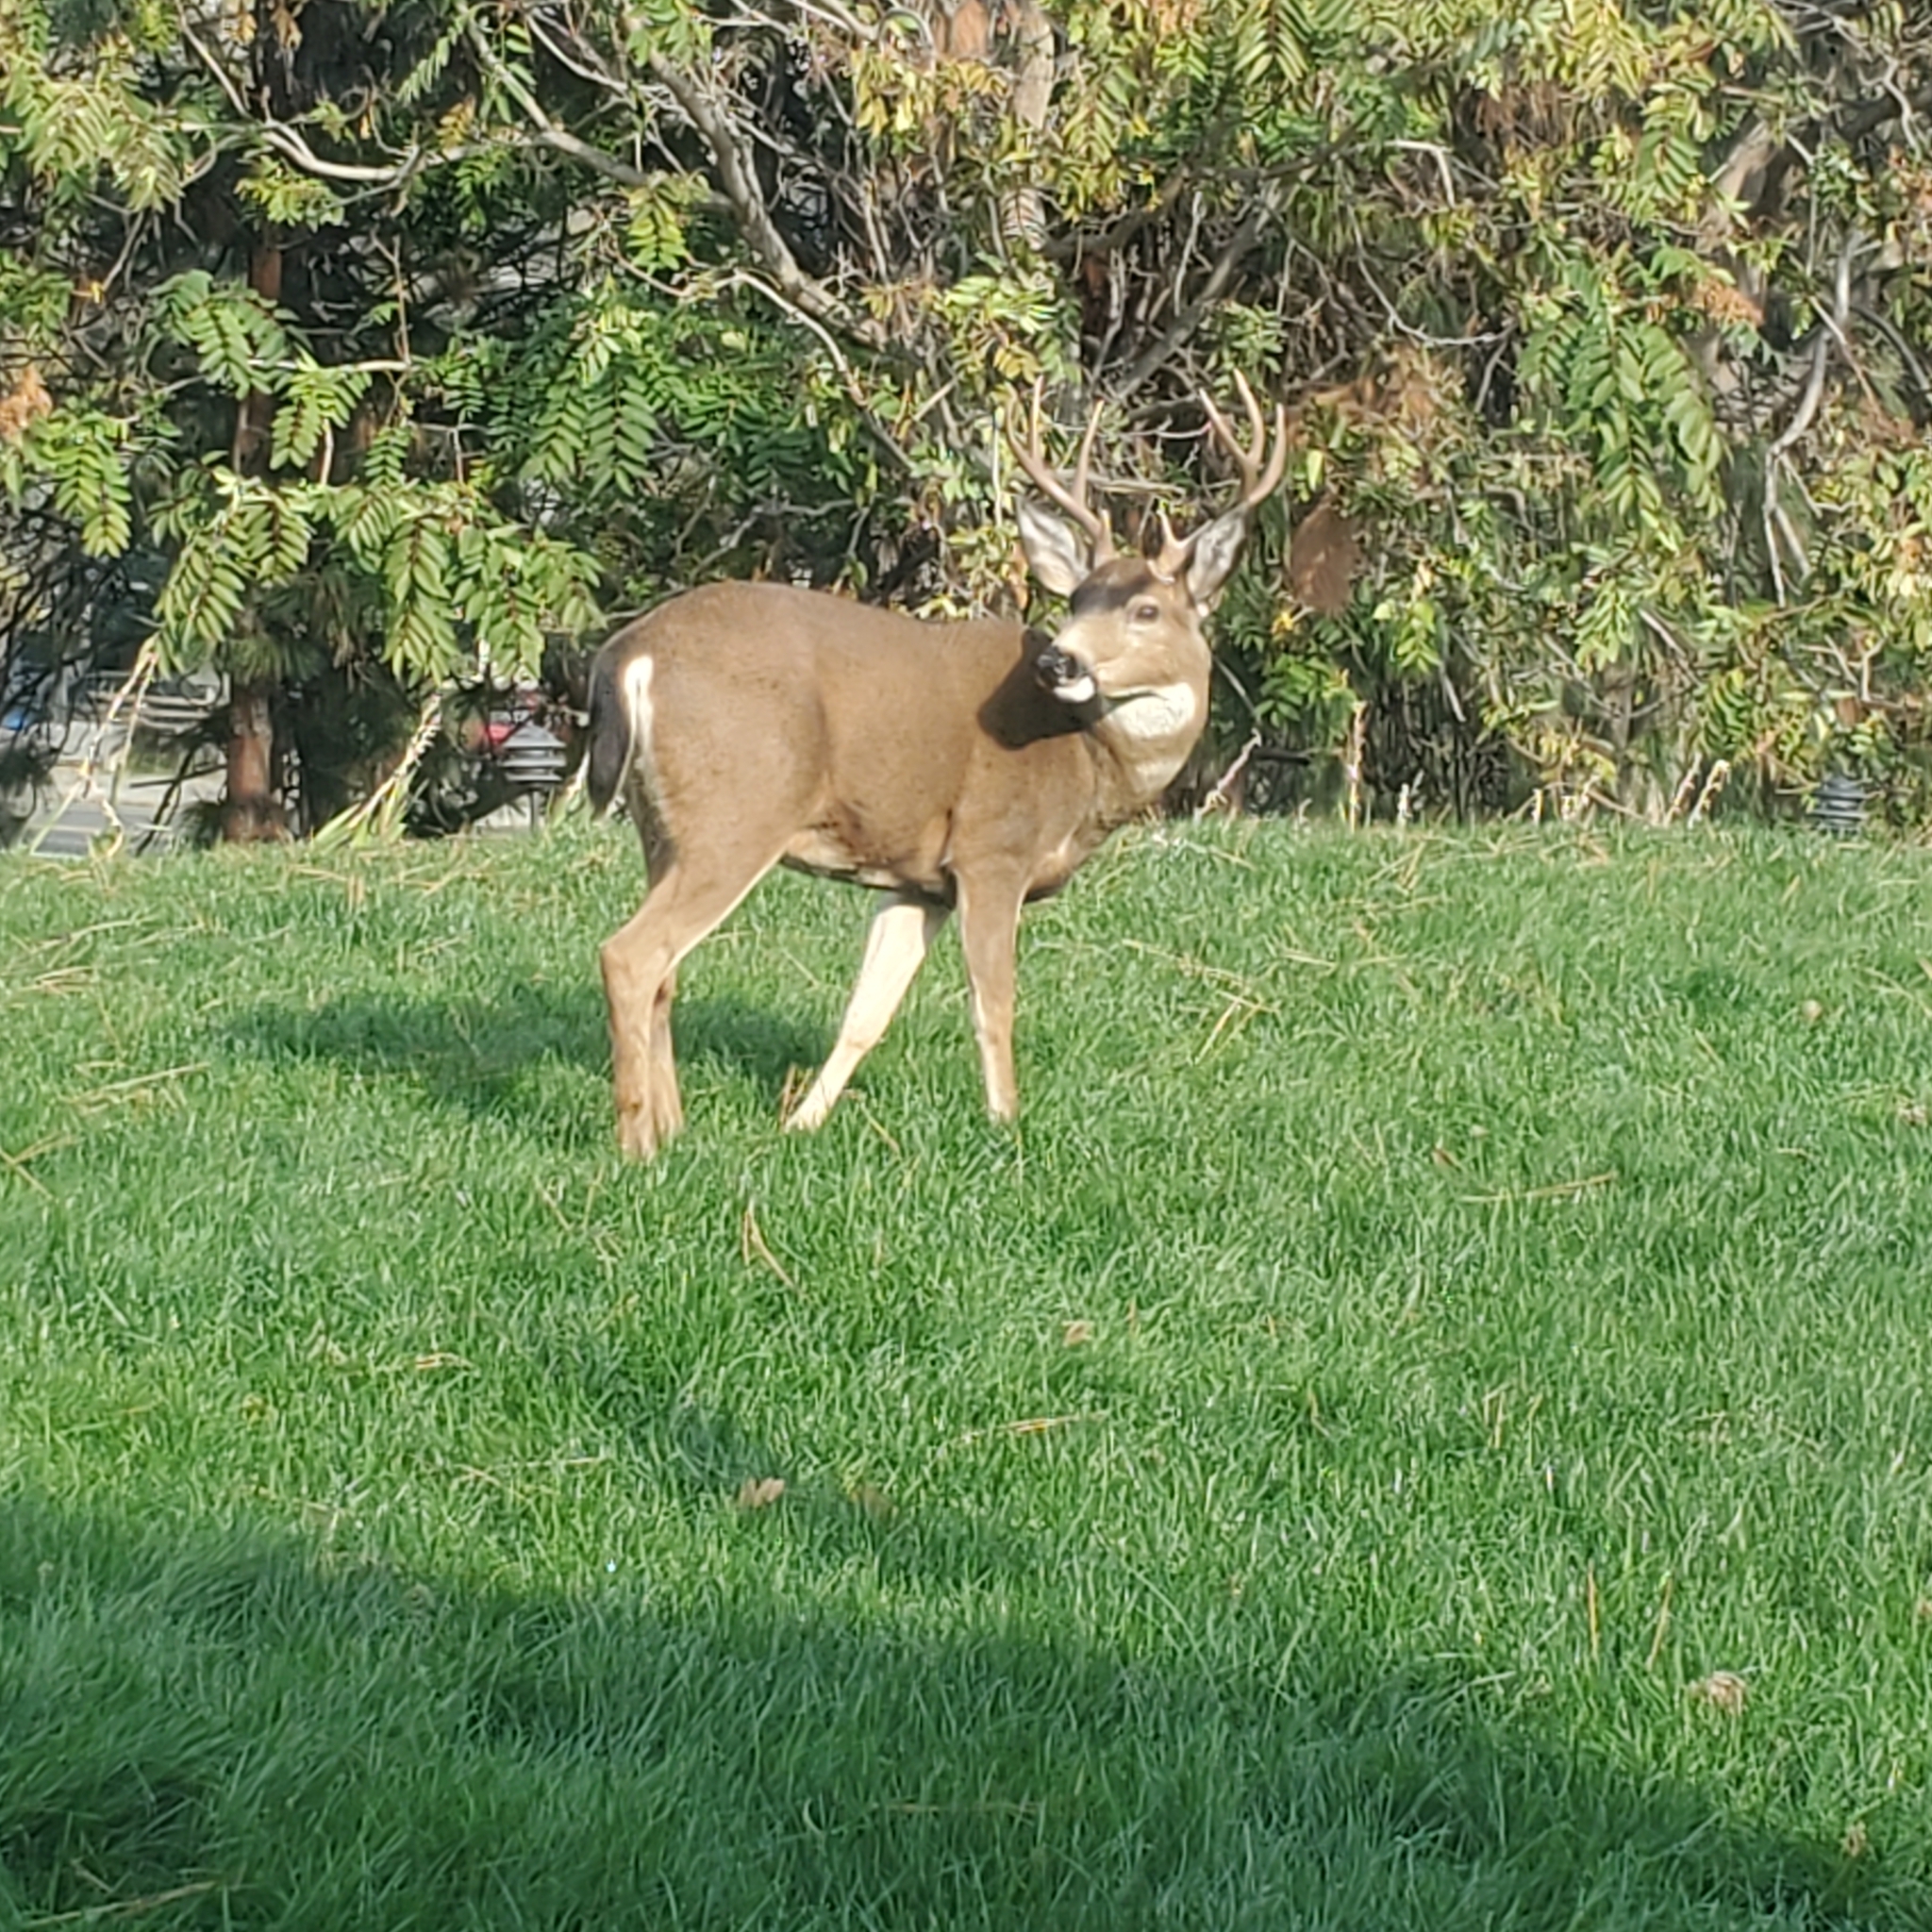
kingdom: Animalia
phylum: Chordata
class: Mammalia
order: Artiodactyla
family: Cervidae
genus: Odocoileus
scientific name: Odocoileus hemionus
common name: Mule deer
